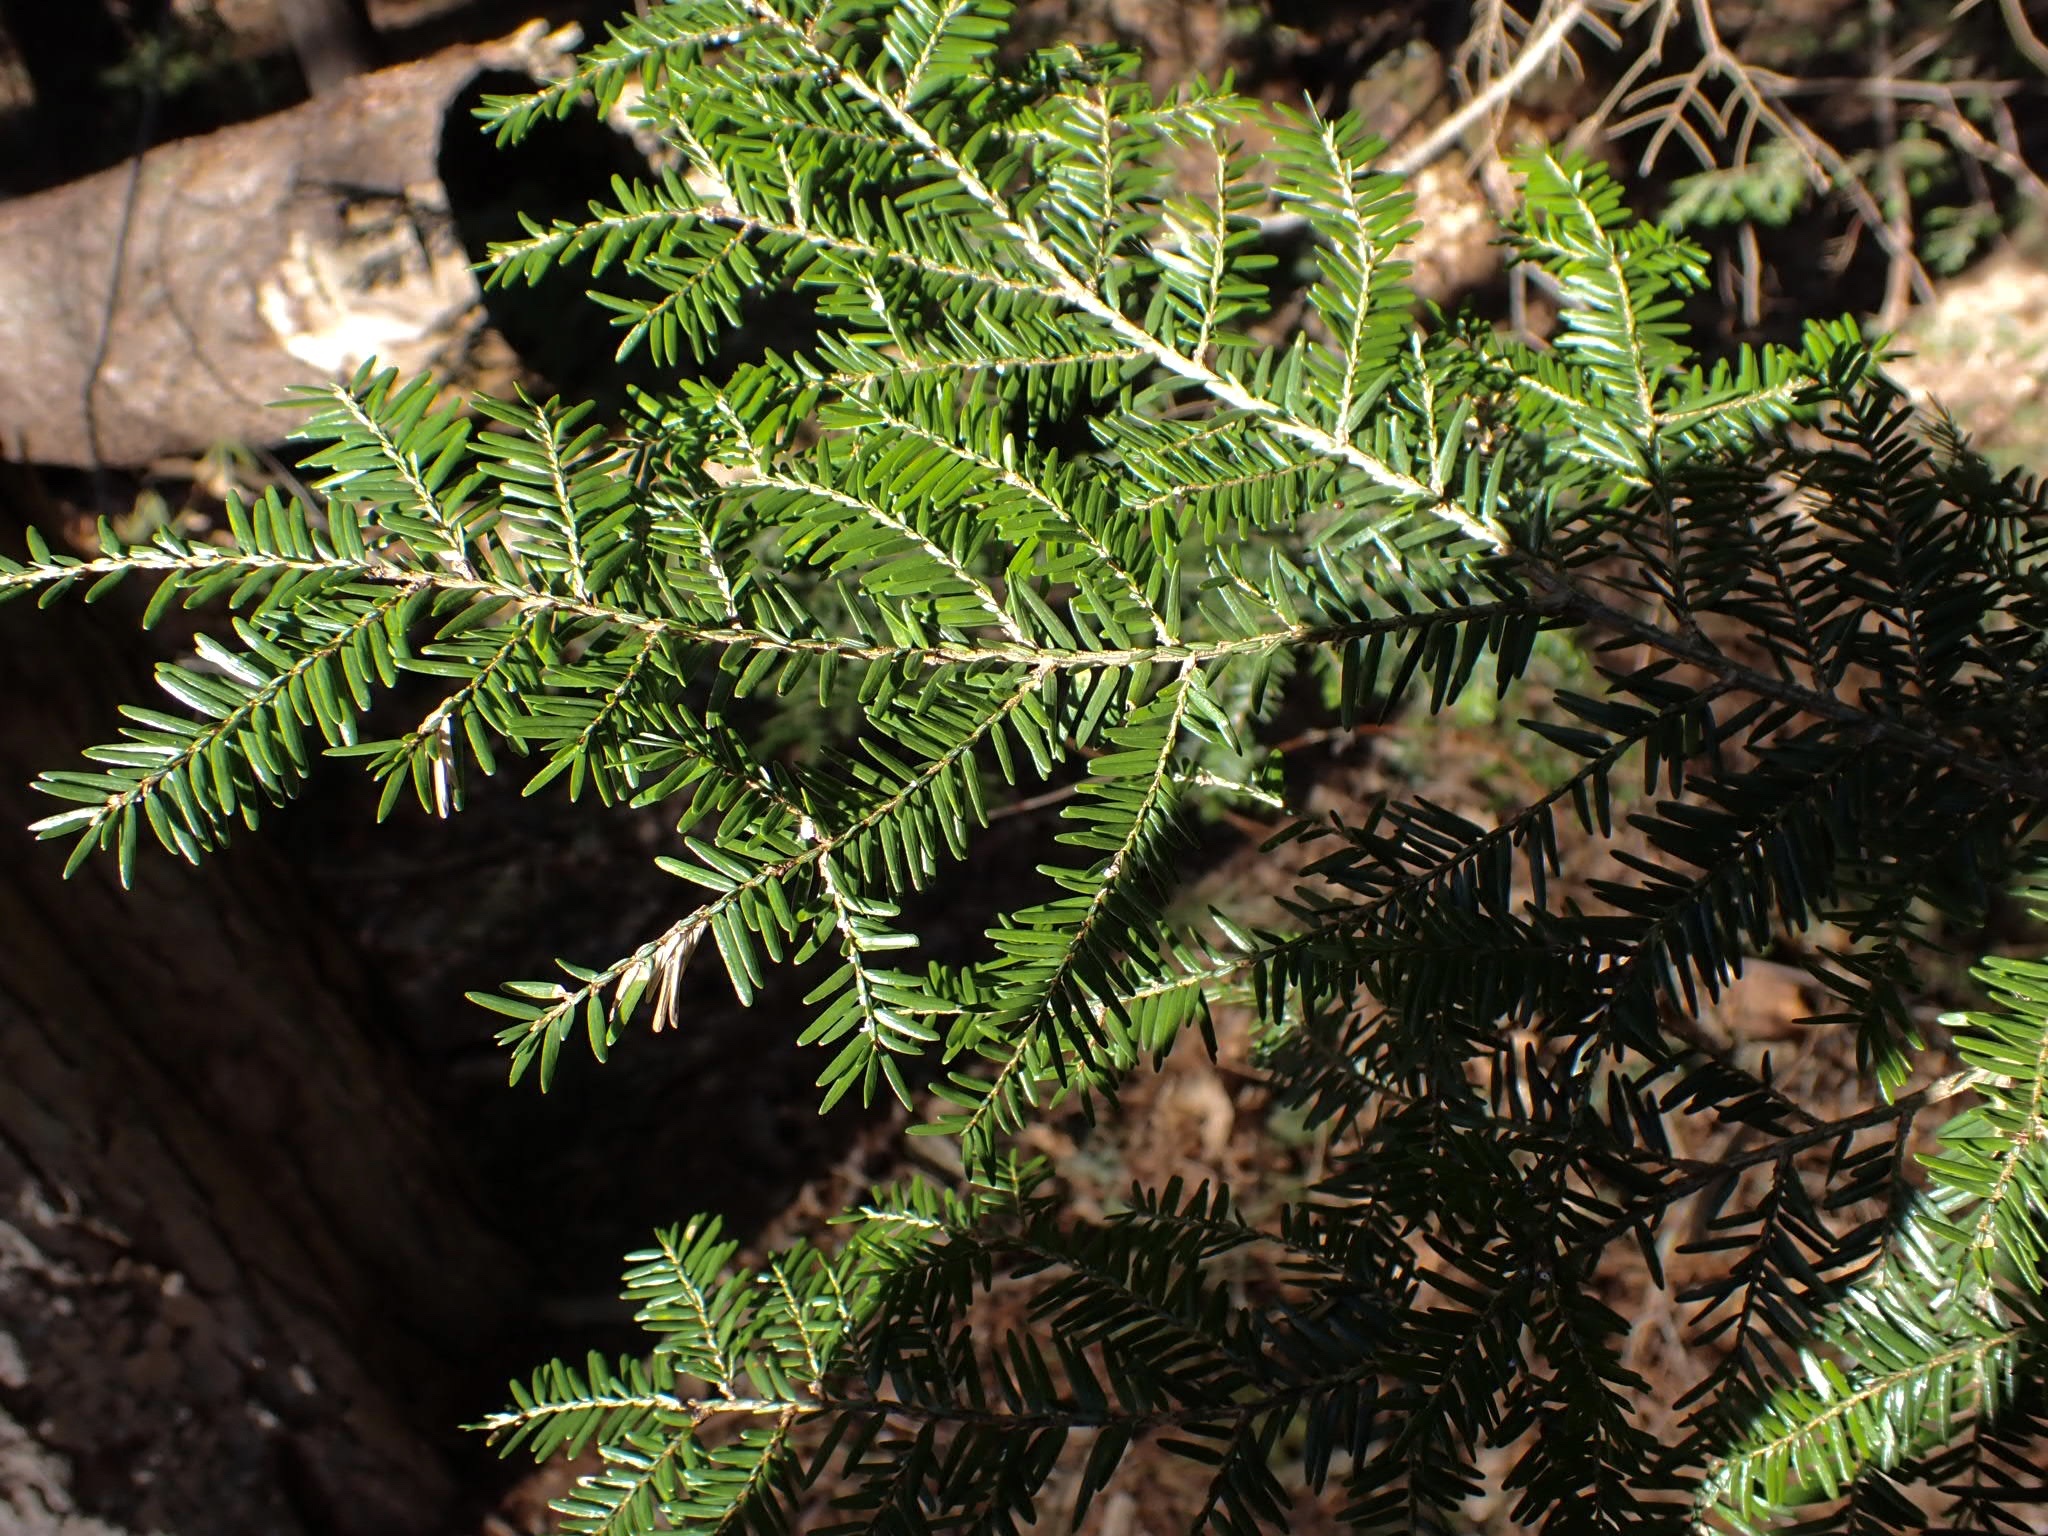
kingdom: Plantae
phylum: Tracheophyta
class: Pinopsida
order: Pinales
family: Pinaceae
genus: Tsuga
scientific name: Tsuga canadensis
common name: Eastern hemlock
